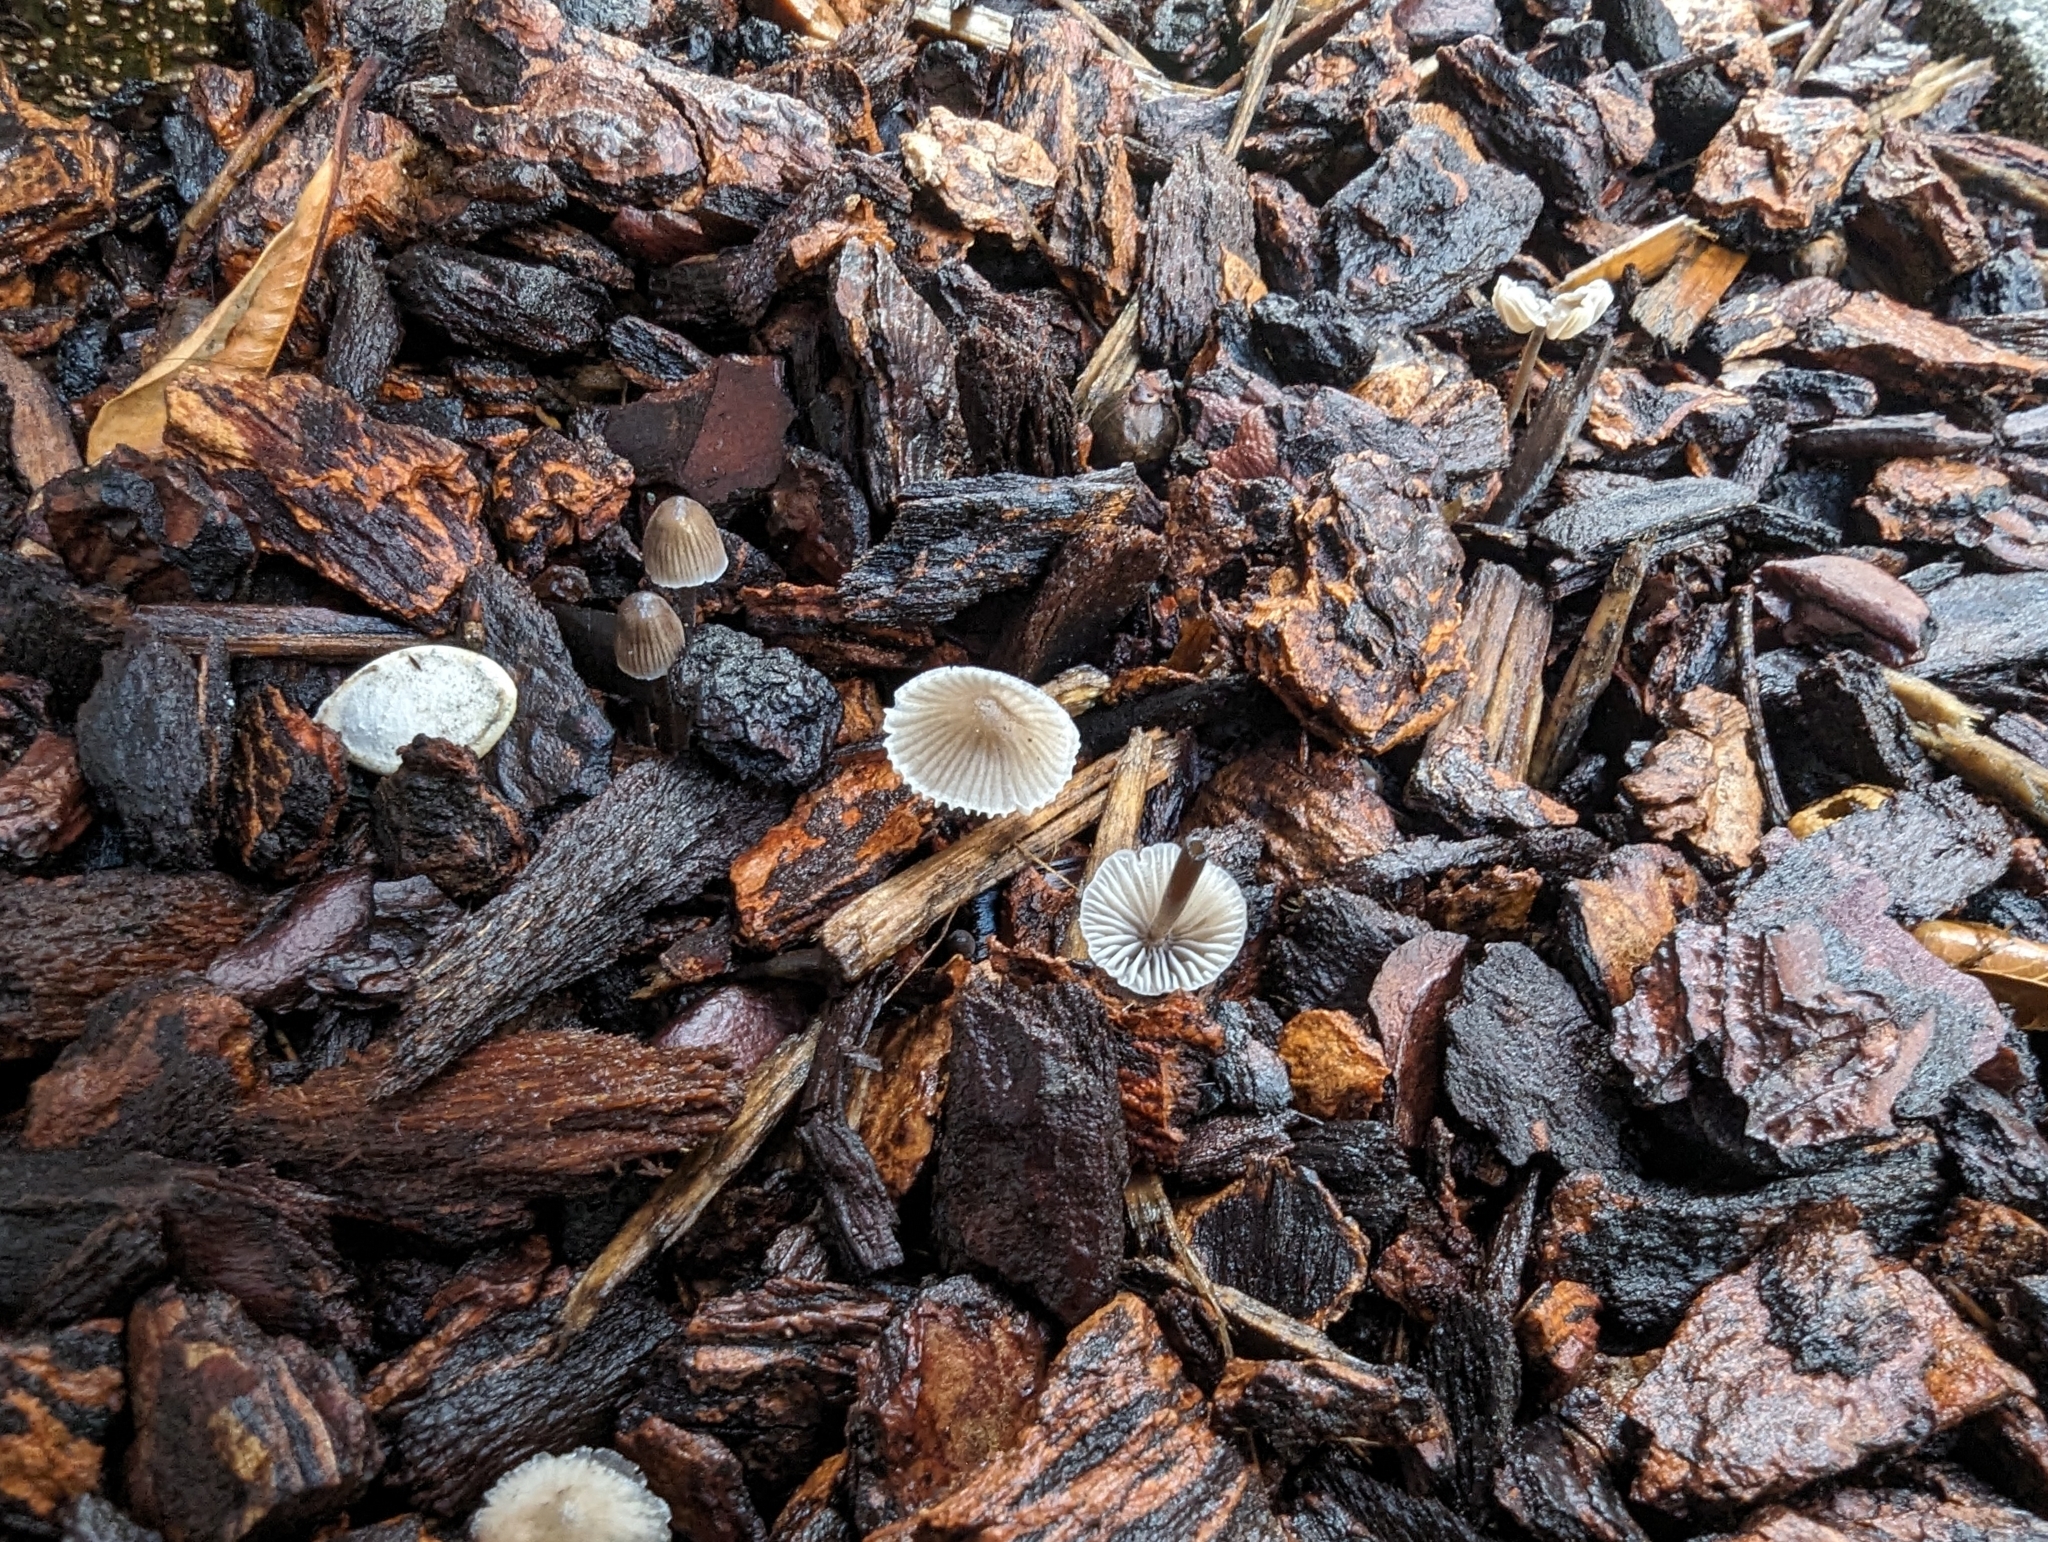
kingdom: Fungi
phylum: Basidiomycota
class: Agaricomycetes
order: Agaricales
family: Mycenaceae
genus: Mycena
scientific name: Mycena leptocephala
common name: Nitrous bonnet
